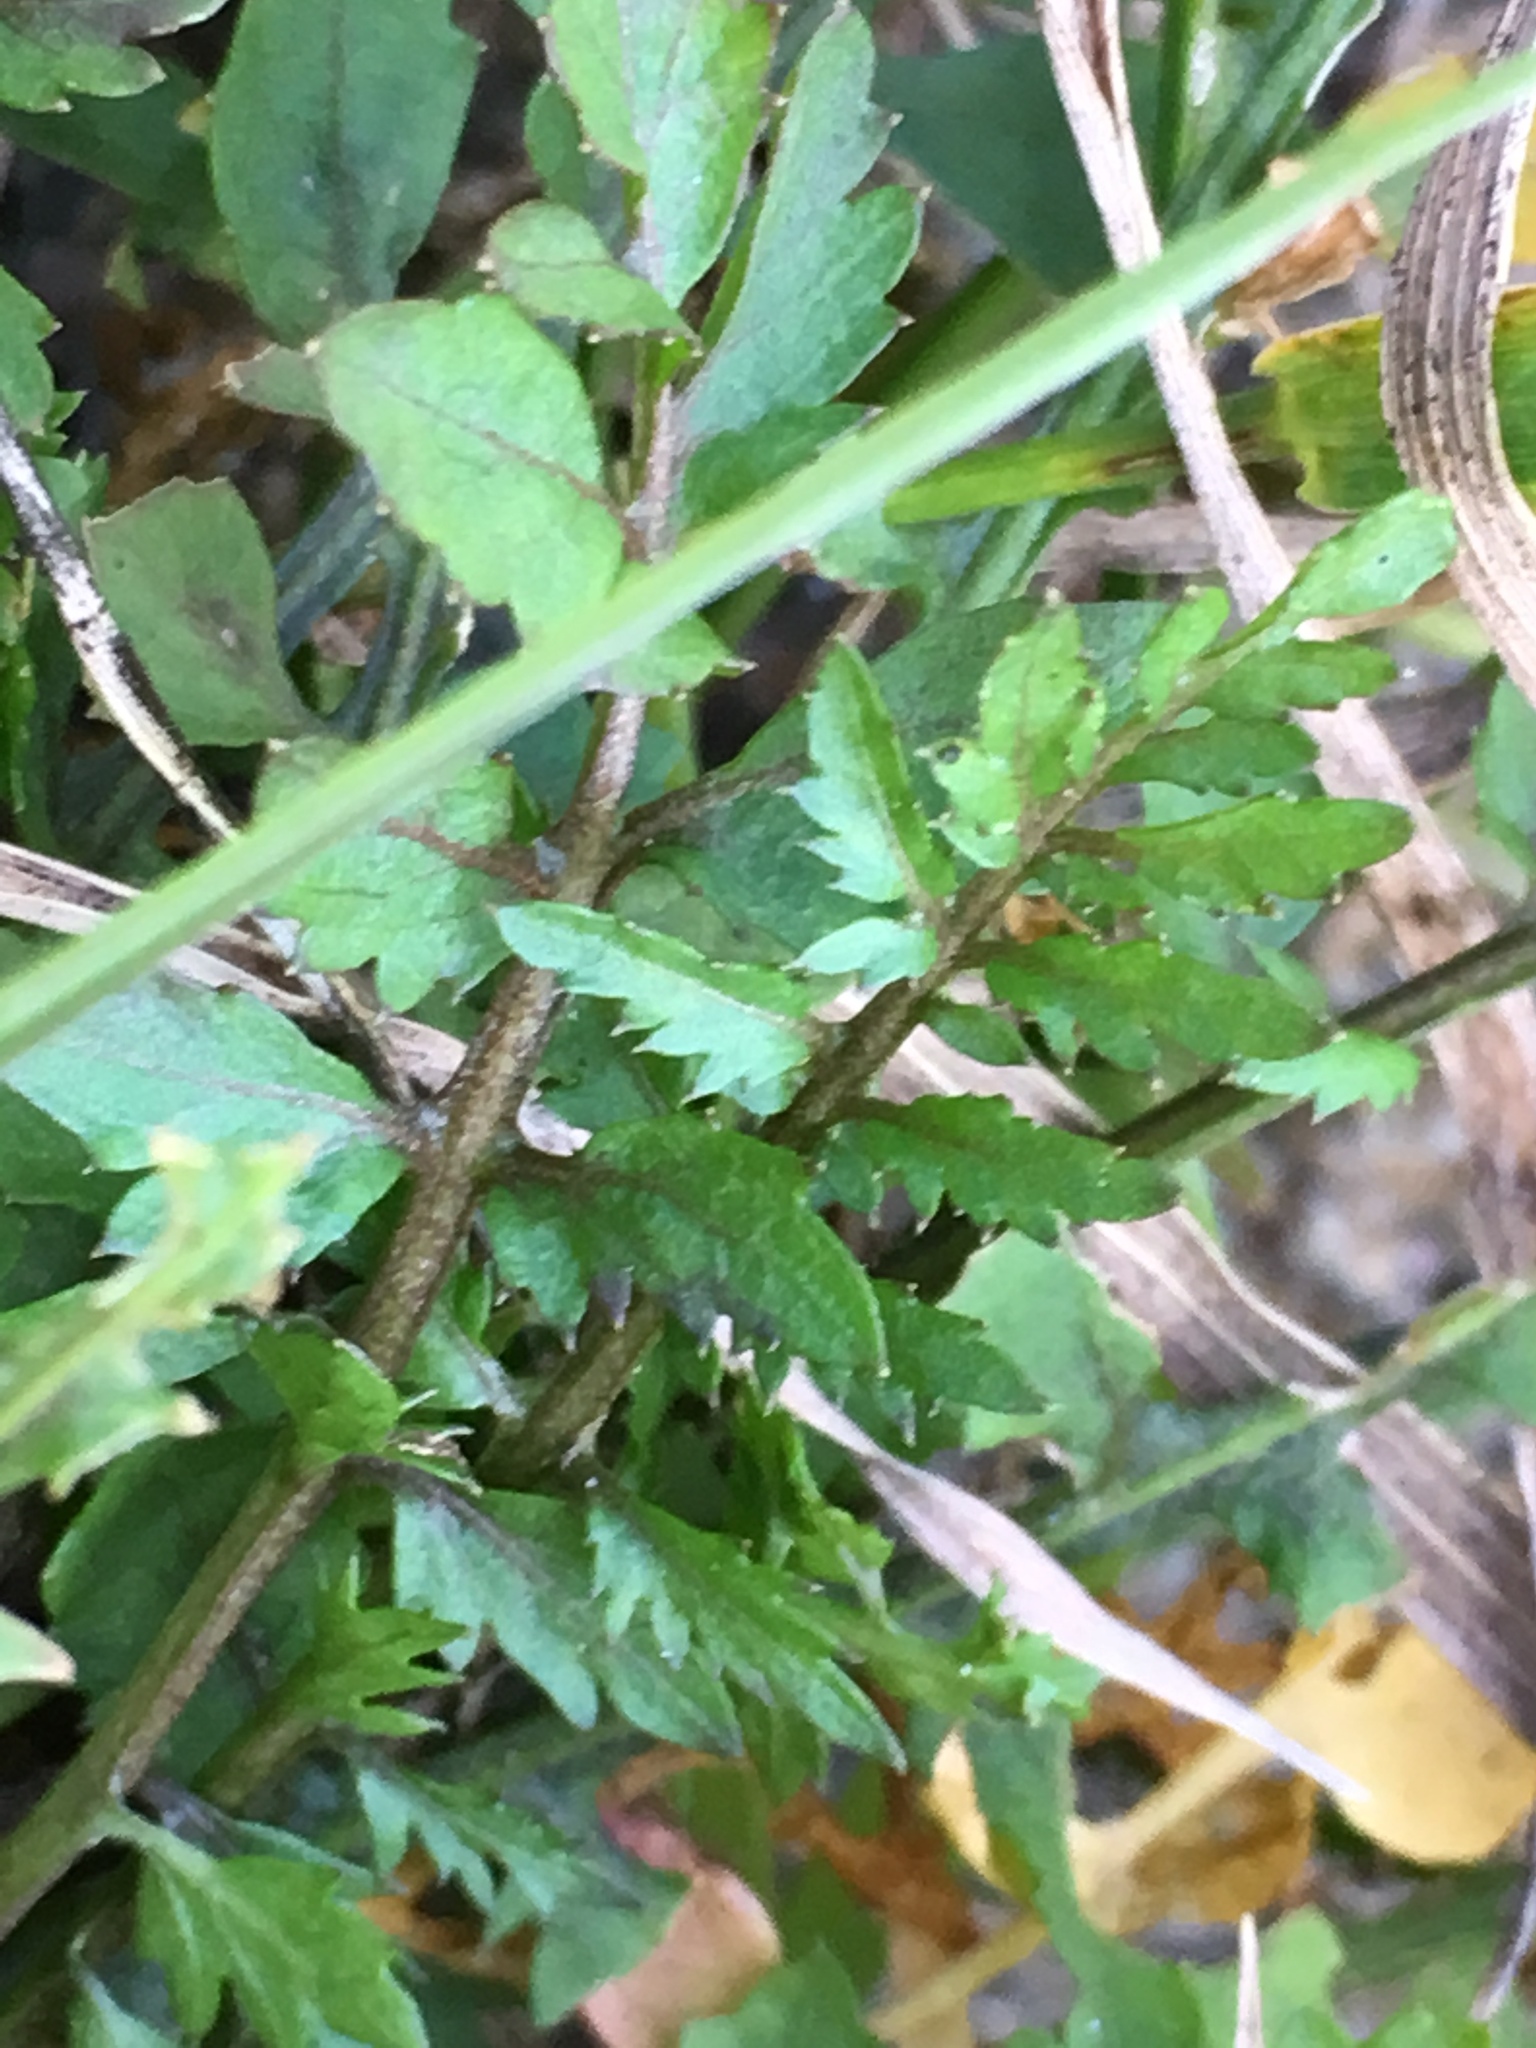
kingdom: Plantae
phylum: Tracheophyta
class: Magnoliopsida
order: Brassicales
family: Brassicaceae
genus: Cardamine
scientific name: Cardamine impatiens
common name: Narrow-leaved bitter-cress
